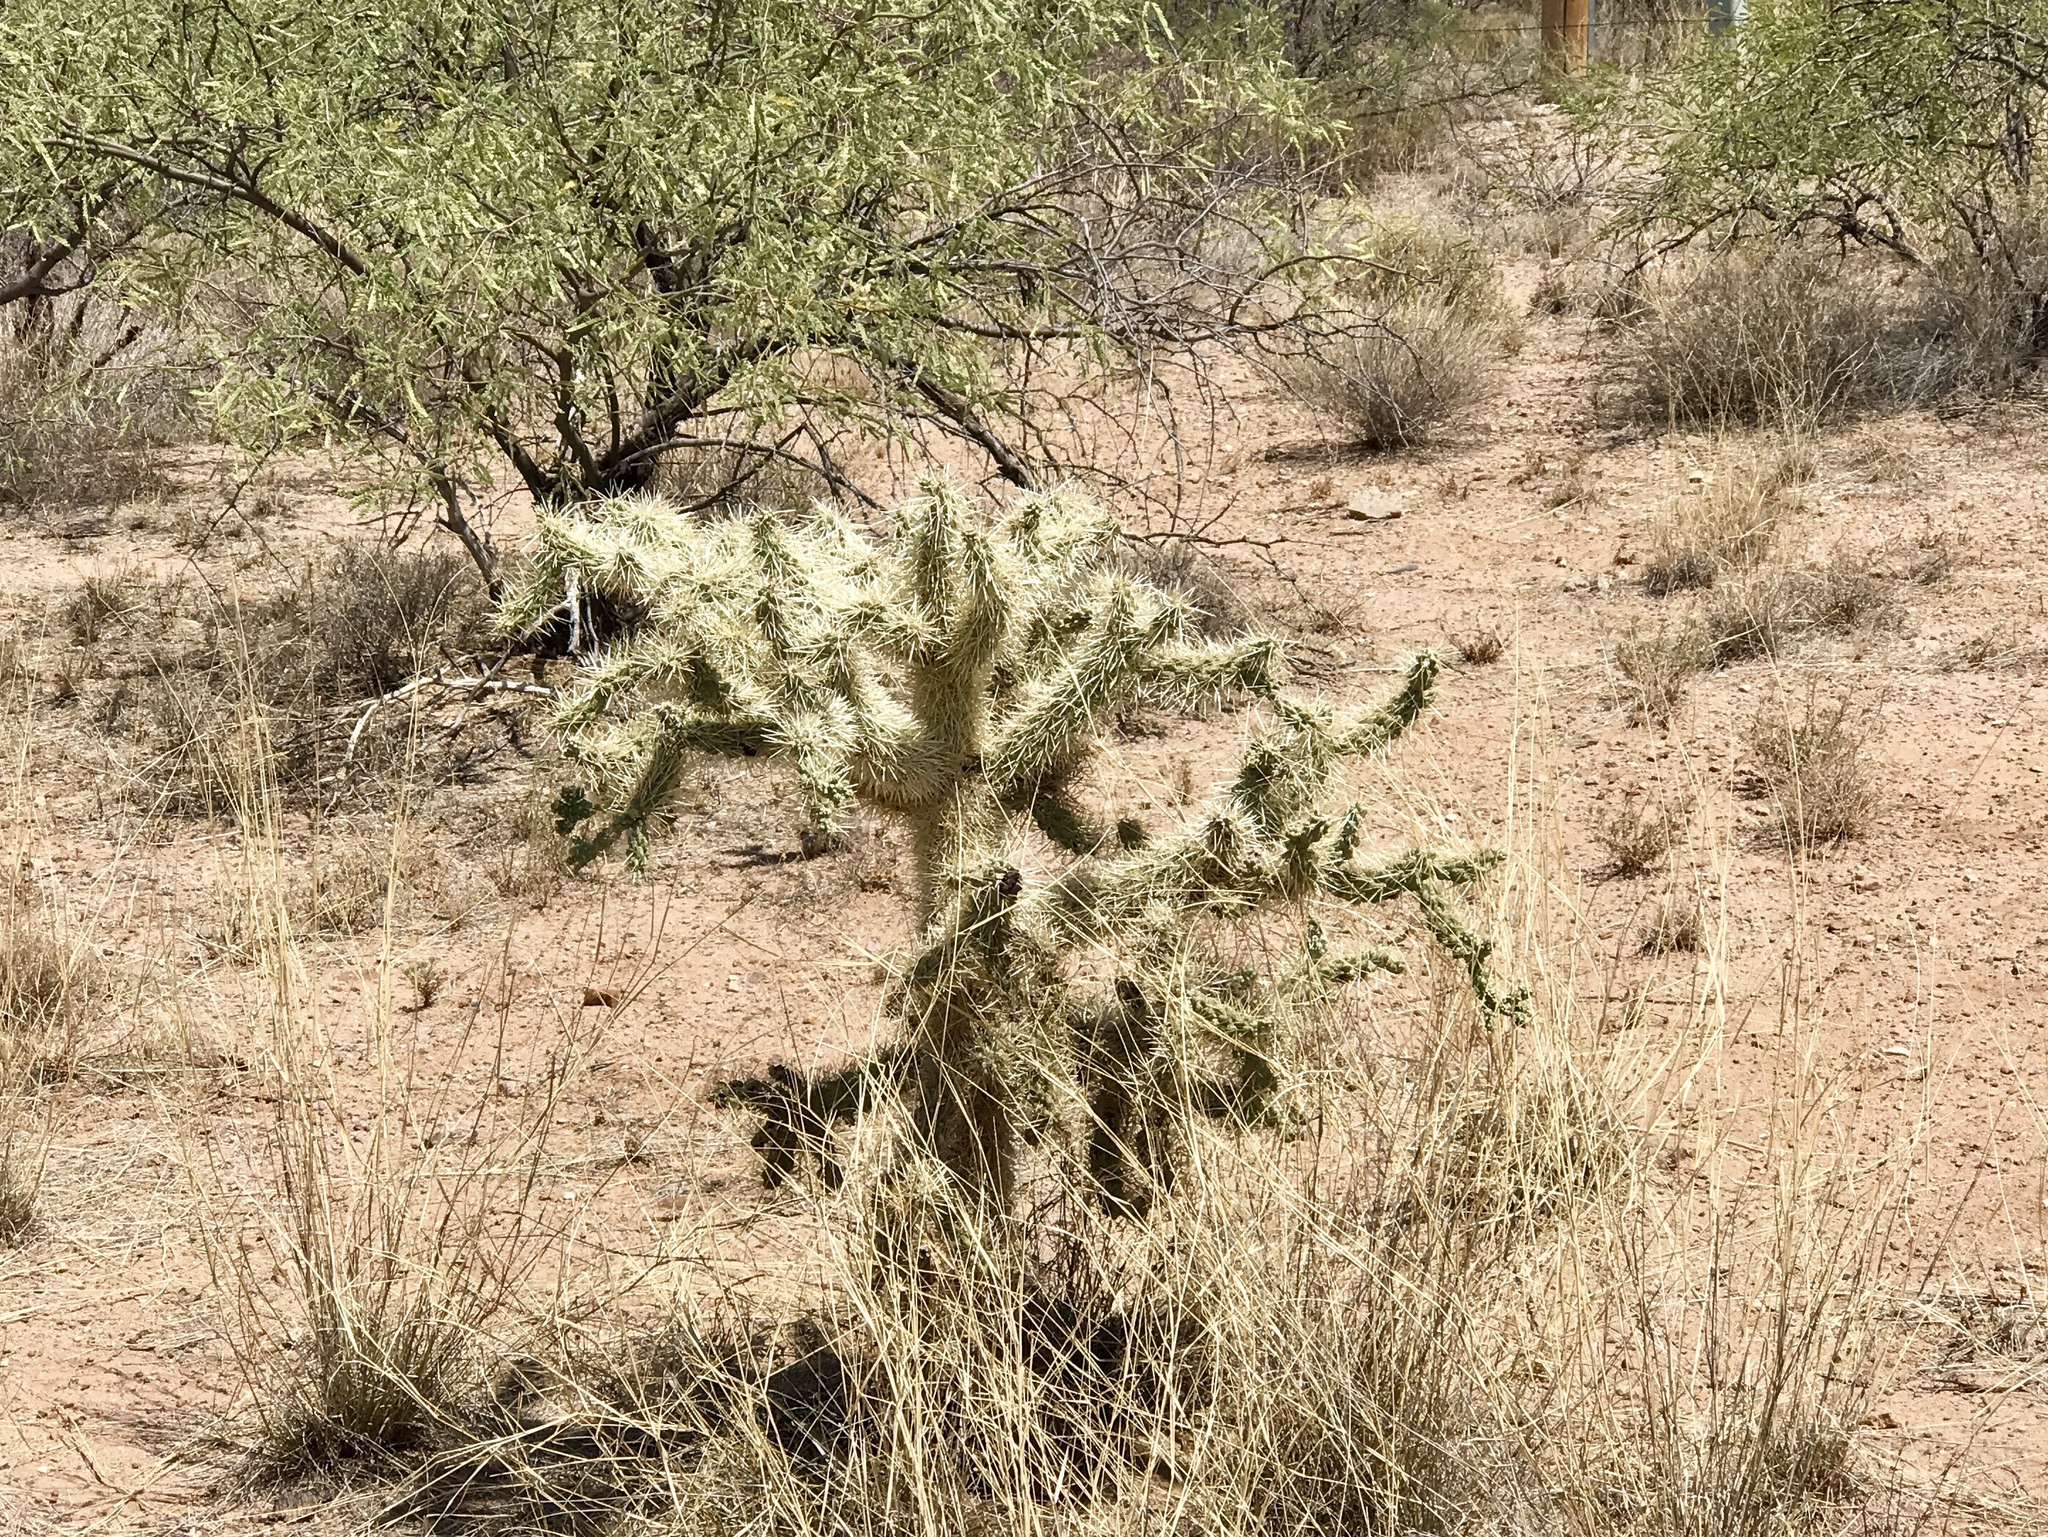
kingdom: Plantae
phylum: Tracheophyta
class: Magnoliopsida
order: Caryophyllales
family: Cactaceae
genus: Cylindropuntia
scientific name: Cylindropuntia fulgida
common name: Jumping cholla
